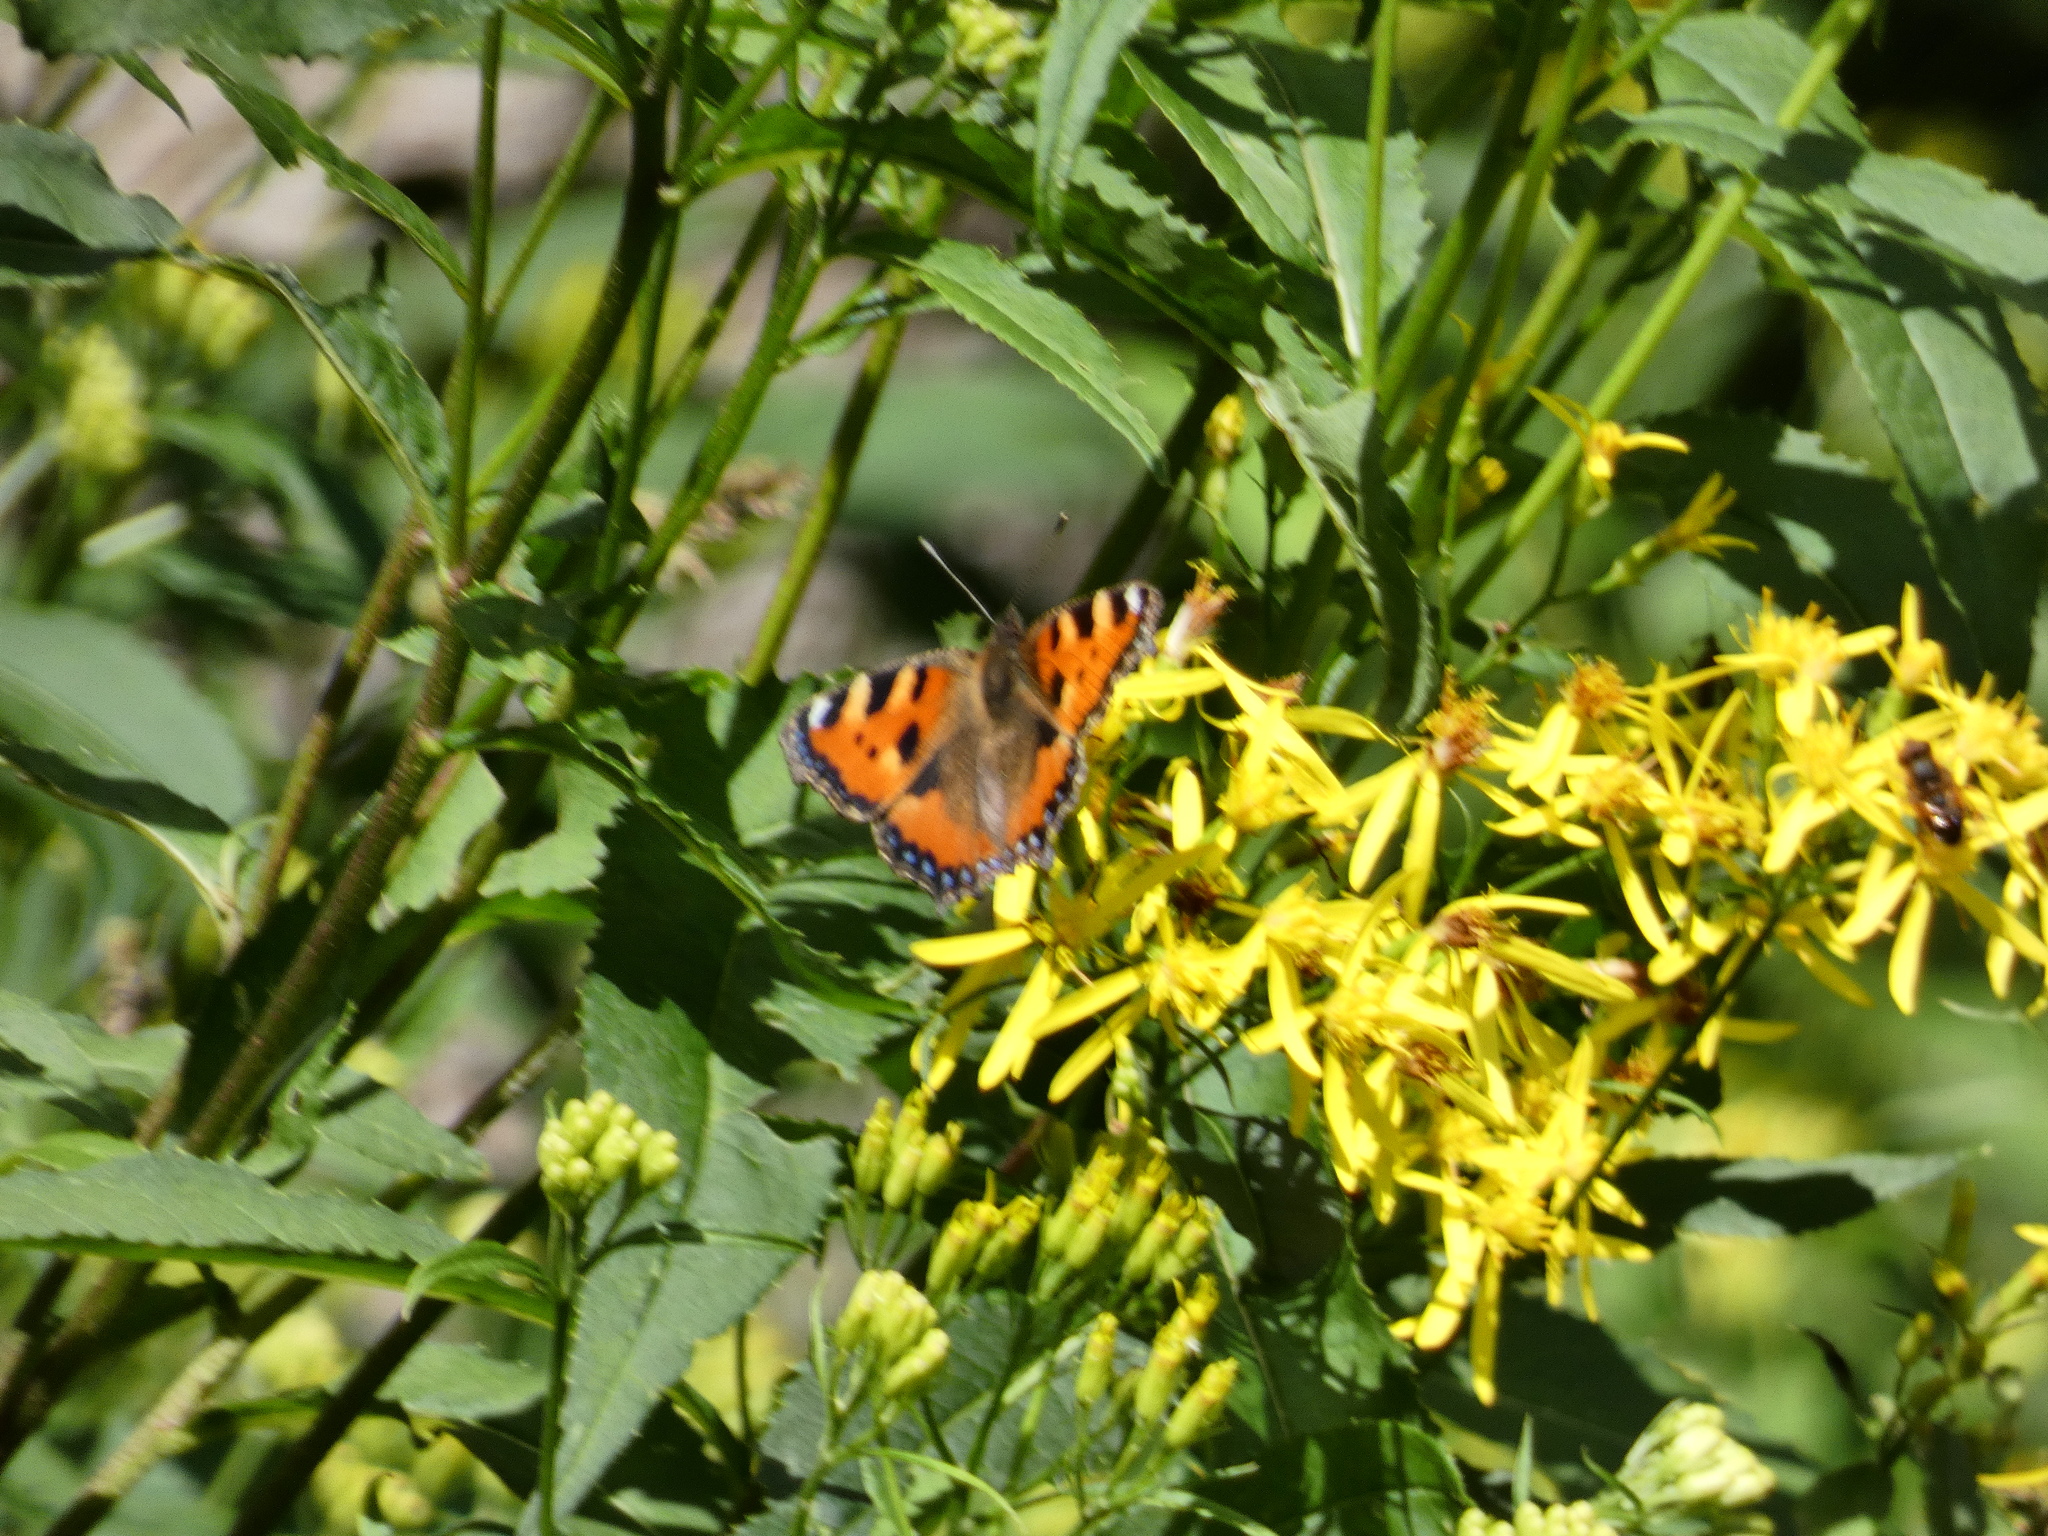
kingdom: Animalia
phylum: Arthropoda
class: Insecta
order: Lepidoptera
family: Nymphalidae
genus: Aglais
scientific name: Aglais urticae
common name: Small tortoiseshell
